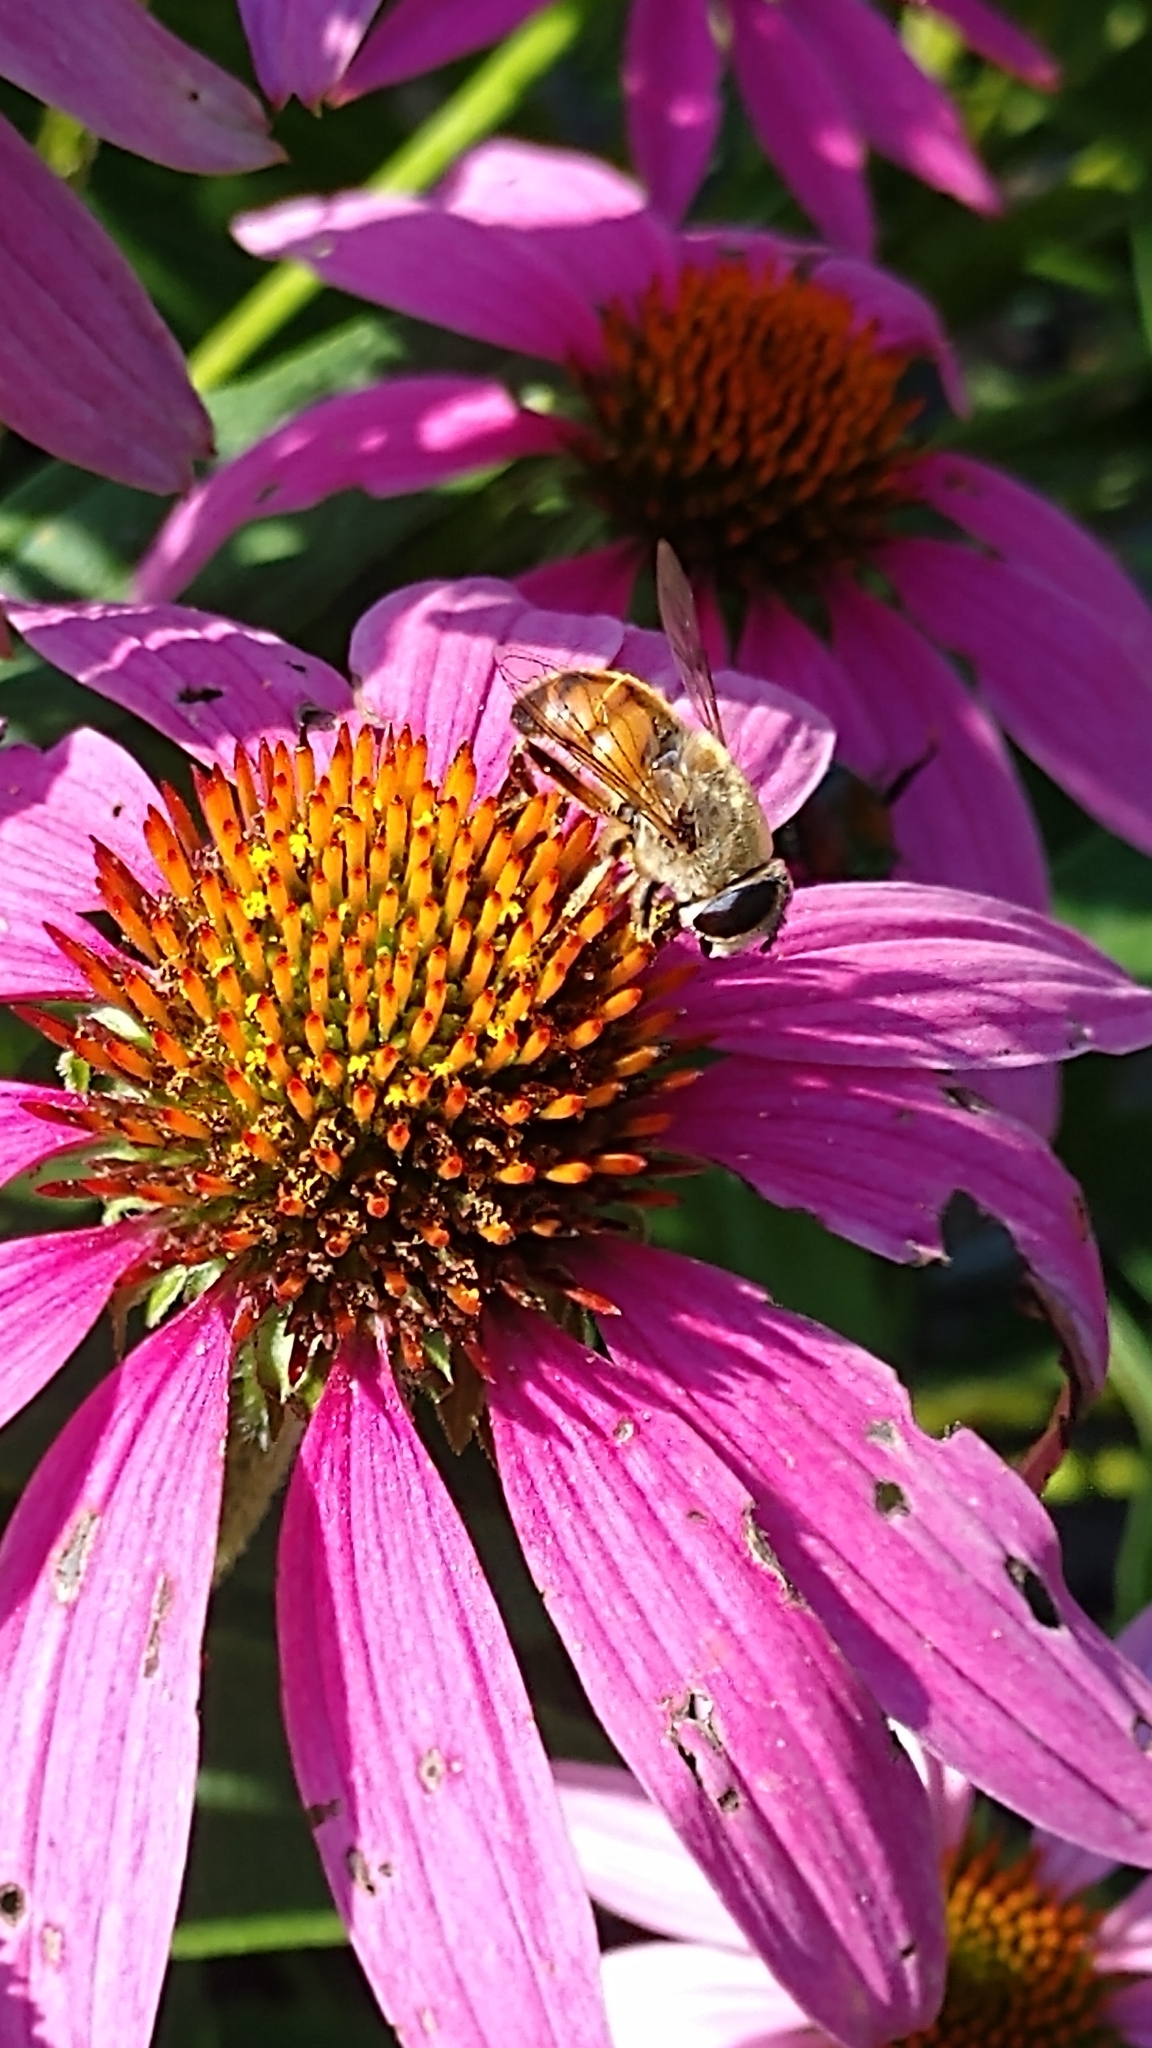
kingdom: Animalia
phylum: Arthropoda
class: Insecta
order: Diptera
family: Syrphidae
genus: Eristalis
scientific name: Eristalis tenax
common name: Drone fly
